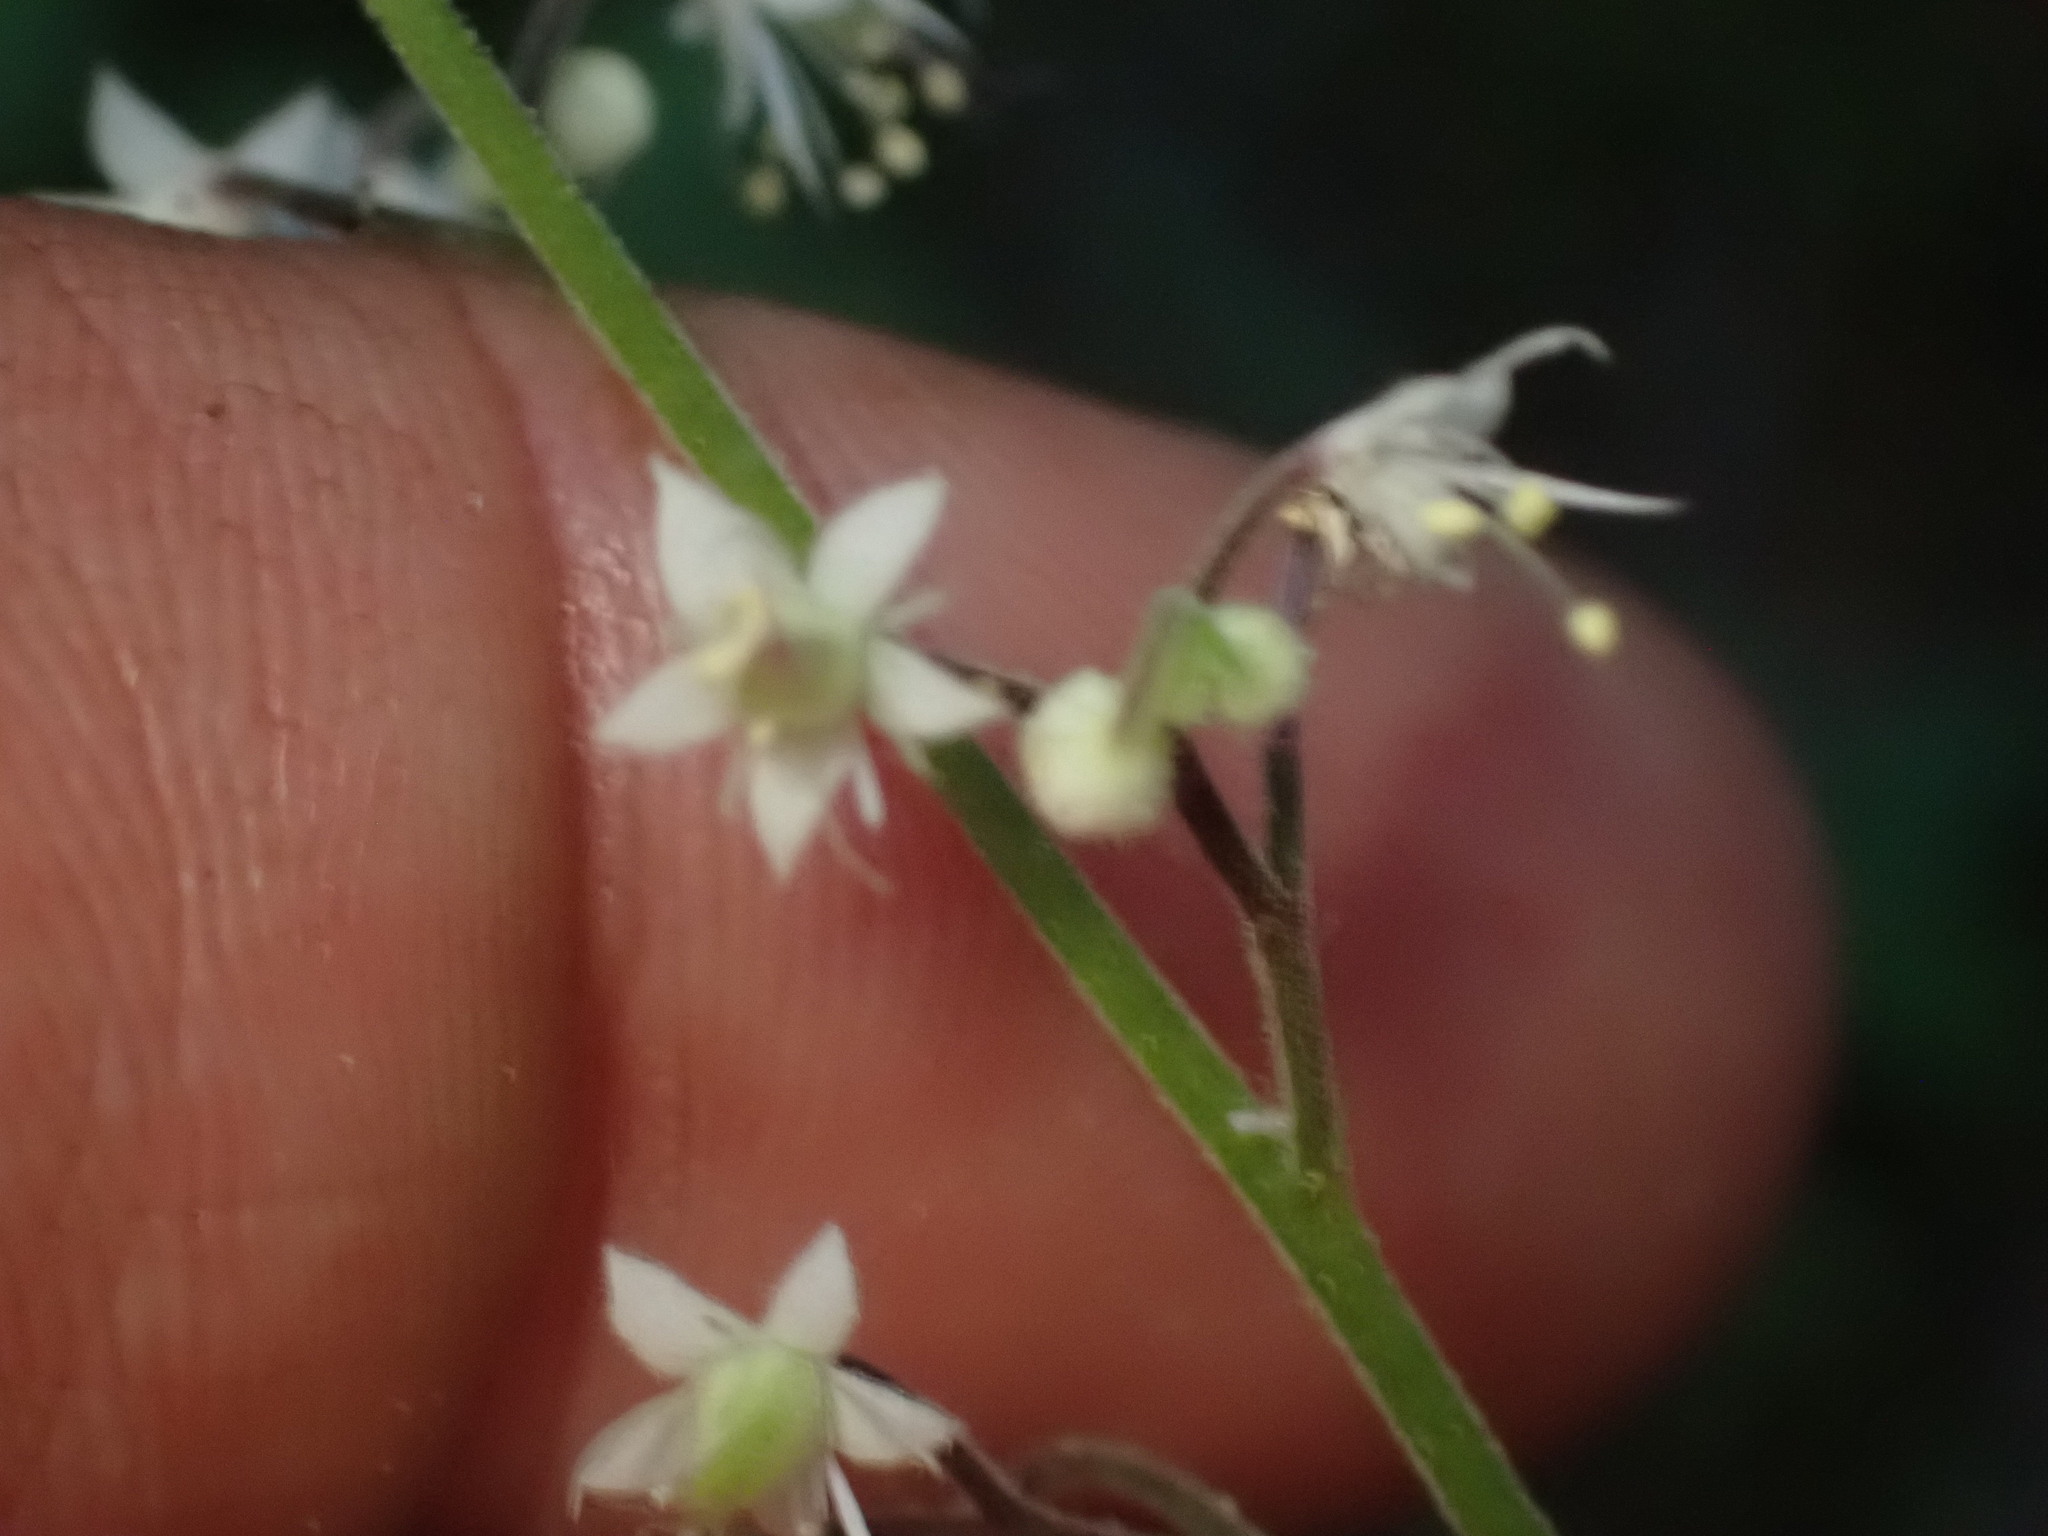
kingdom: Plantae
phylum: Tracheophyta
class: Magnoliopsida
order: Saxifragales
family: Saxifragaceae
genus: Tiarella
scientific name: Tiarella trifoliata
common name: Sugar-scoop
